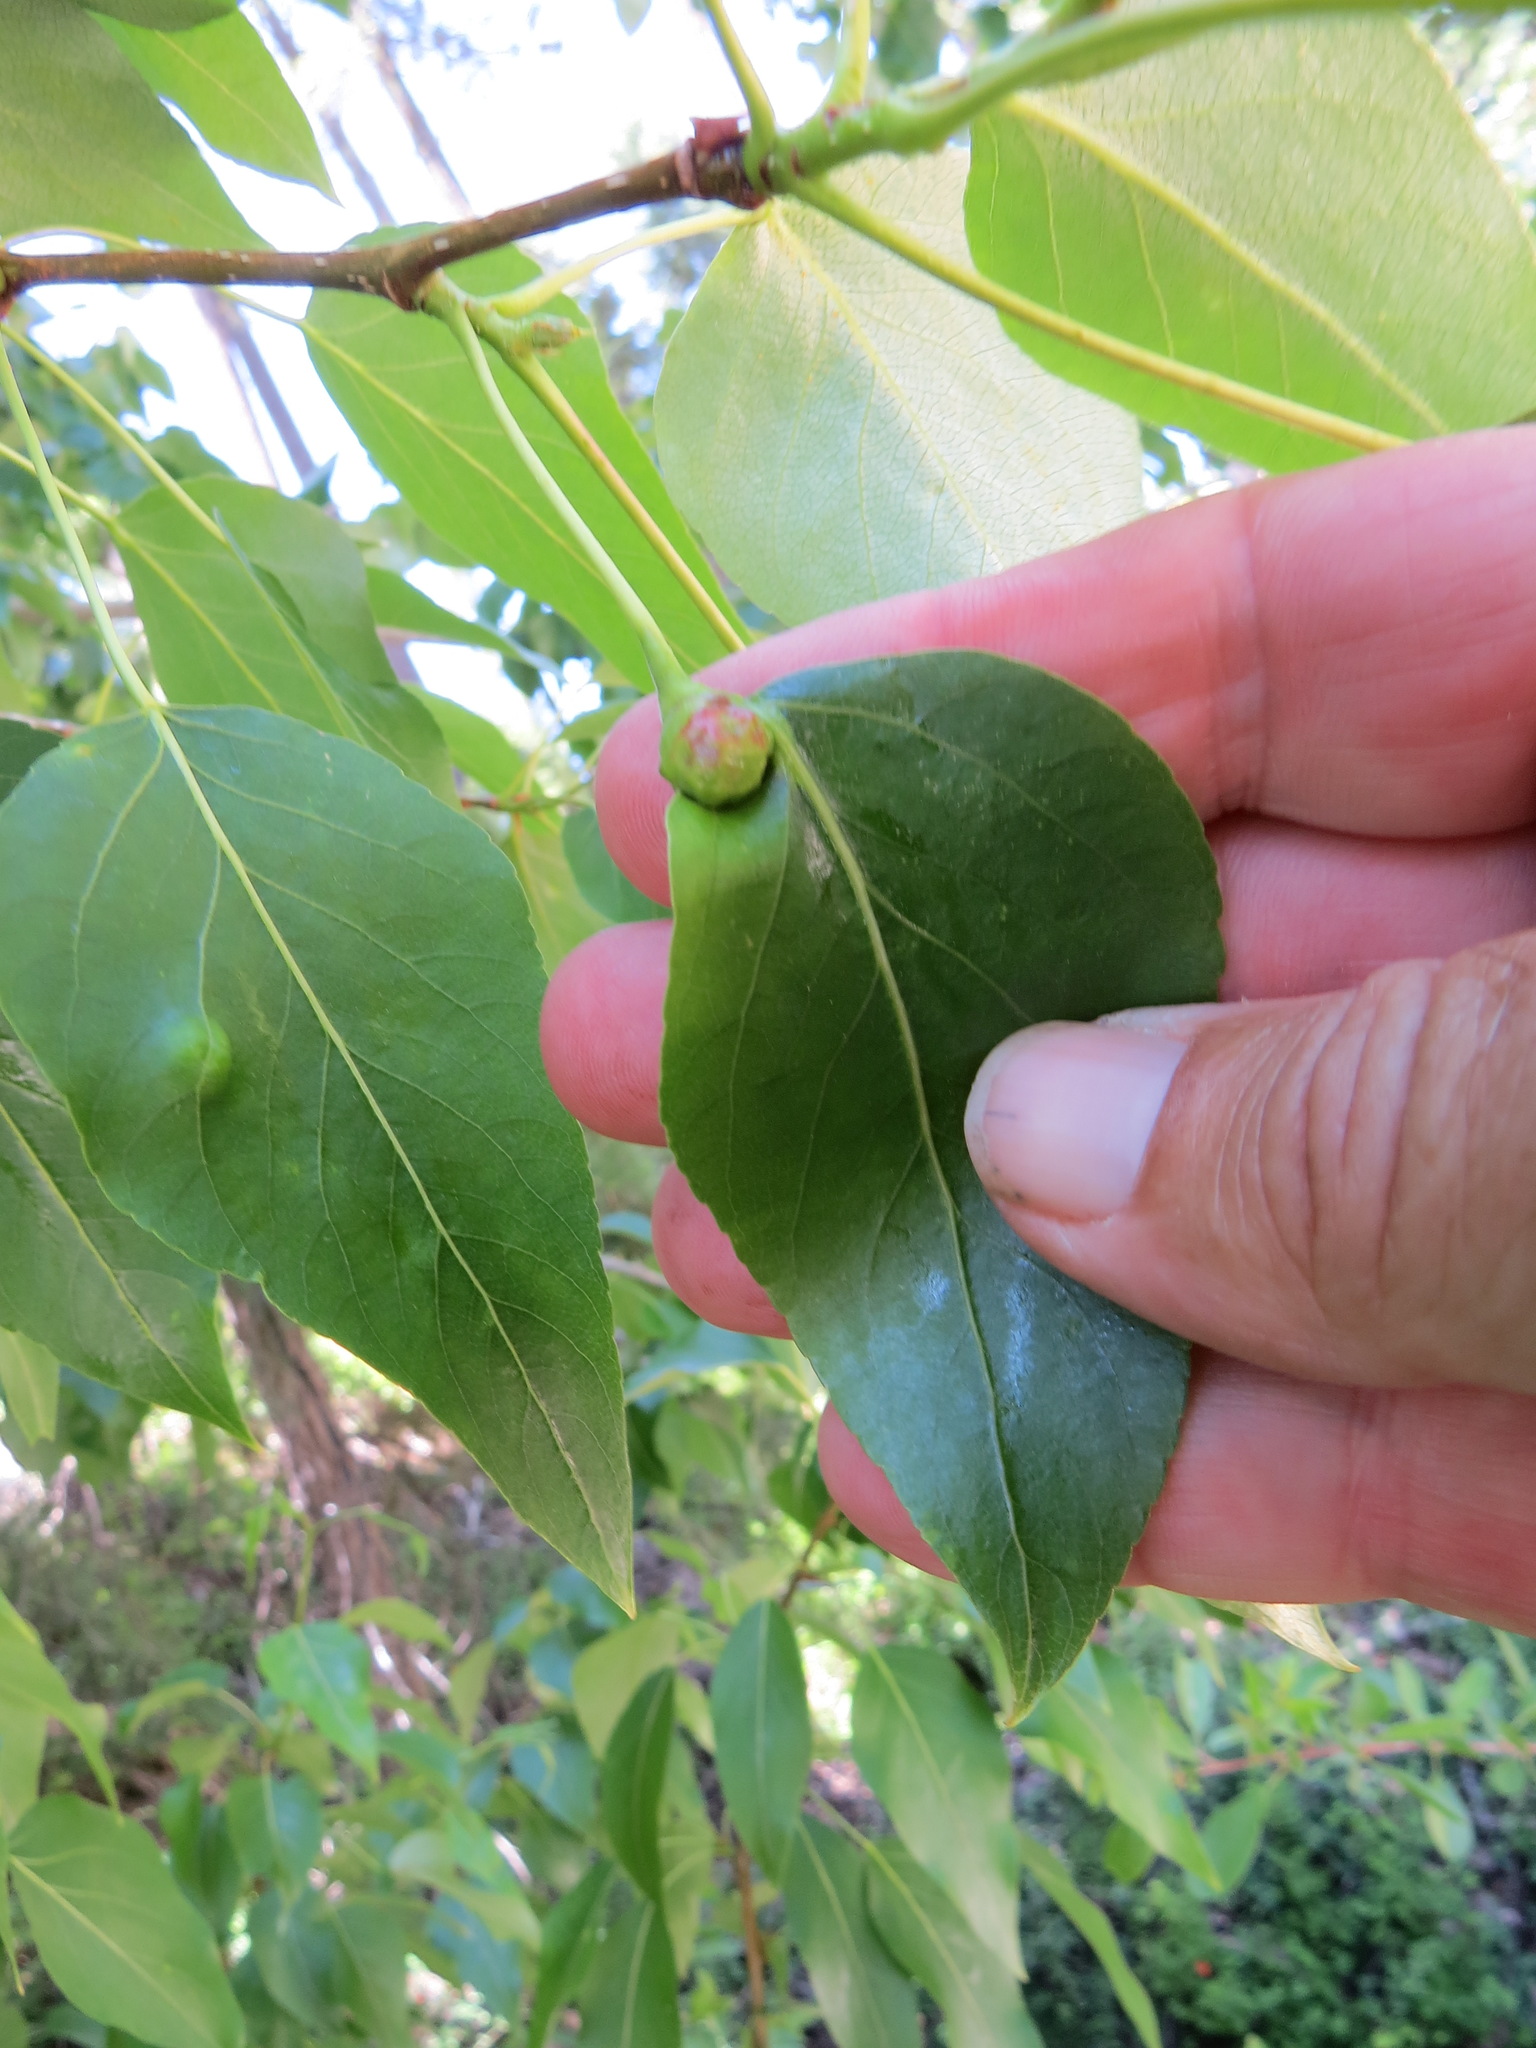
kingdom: Animalia
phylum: Arthropoda
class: Insecta
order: Hemiptera
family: Aphididae
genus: Pemphigus
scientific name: Pemphigus populi-globuli
